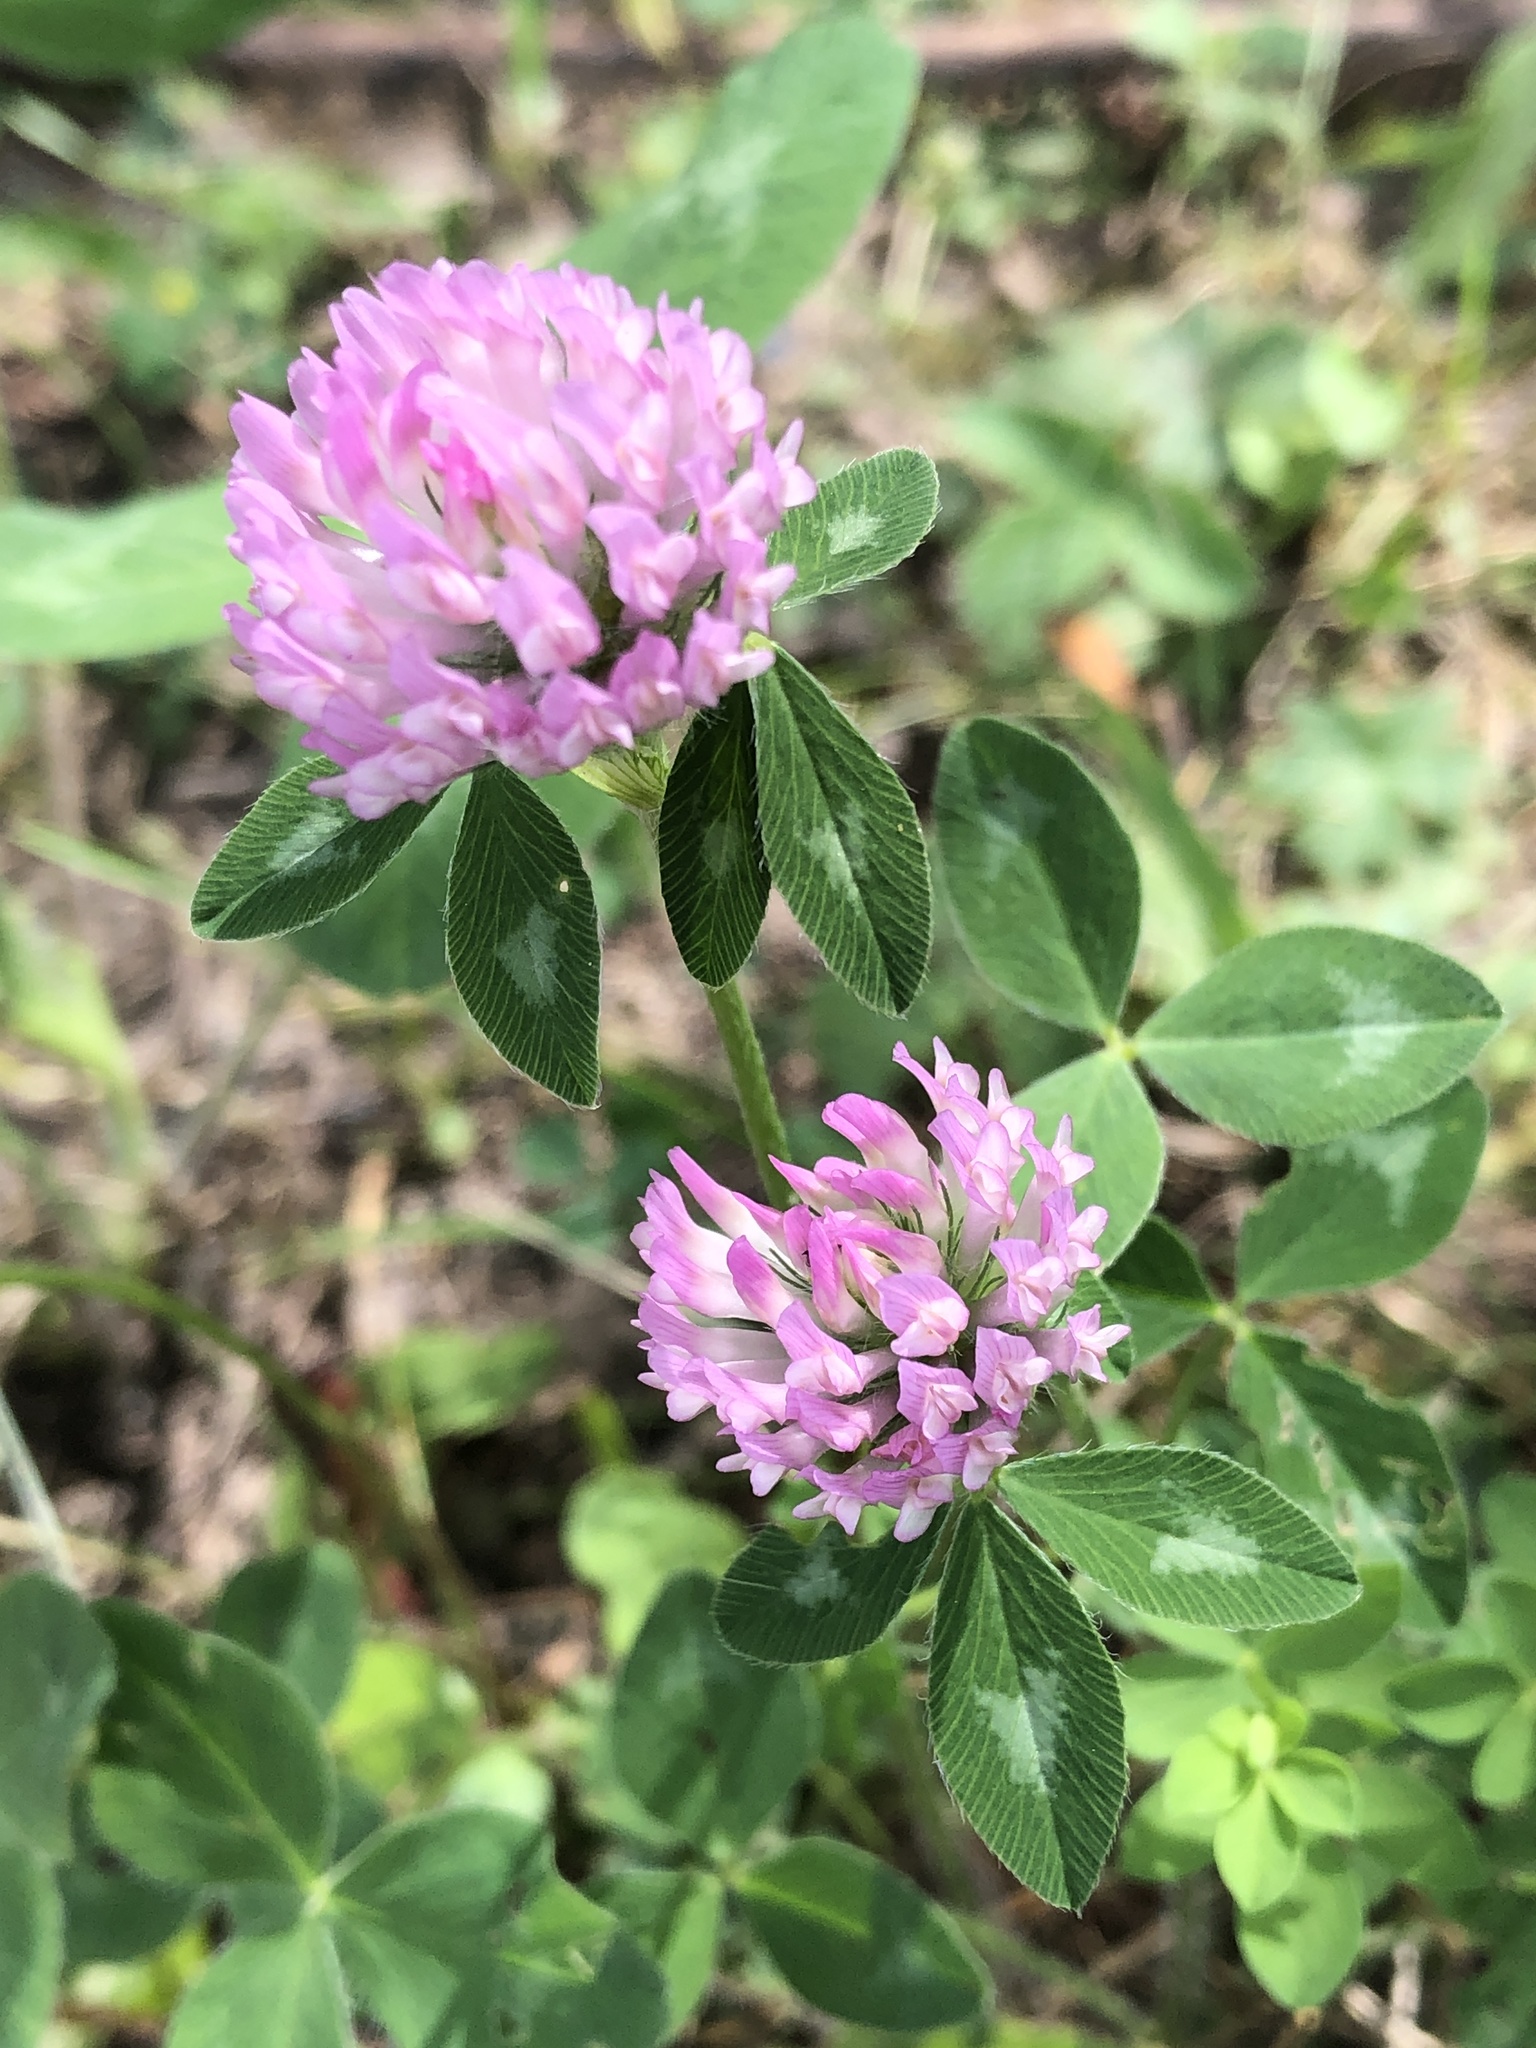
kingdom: Plantae
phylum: Tracheophyta
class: Magnoliopsida
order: Fabales
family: Fabaceae
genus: Trifolium
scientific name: Trifolium pratense
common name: Red clover
